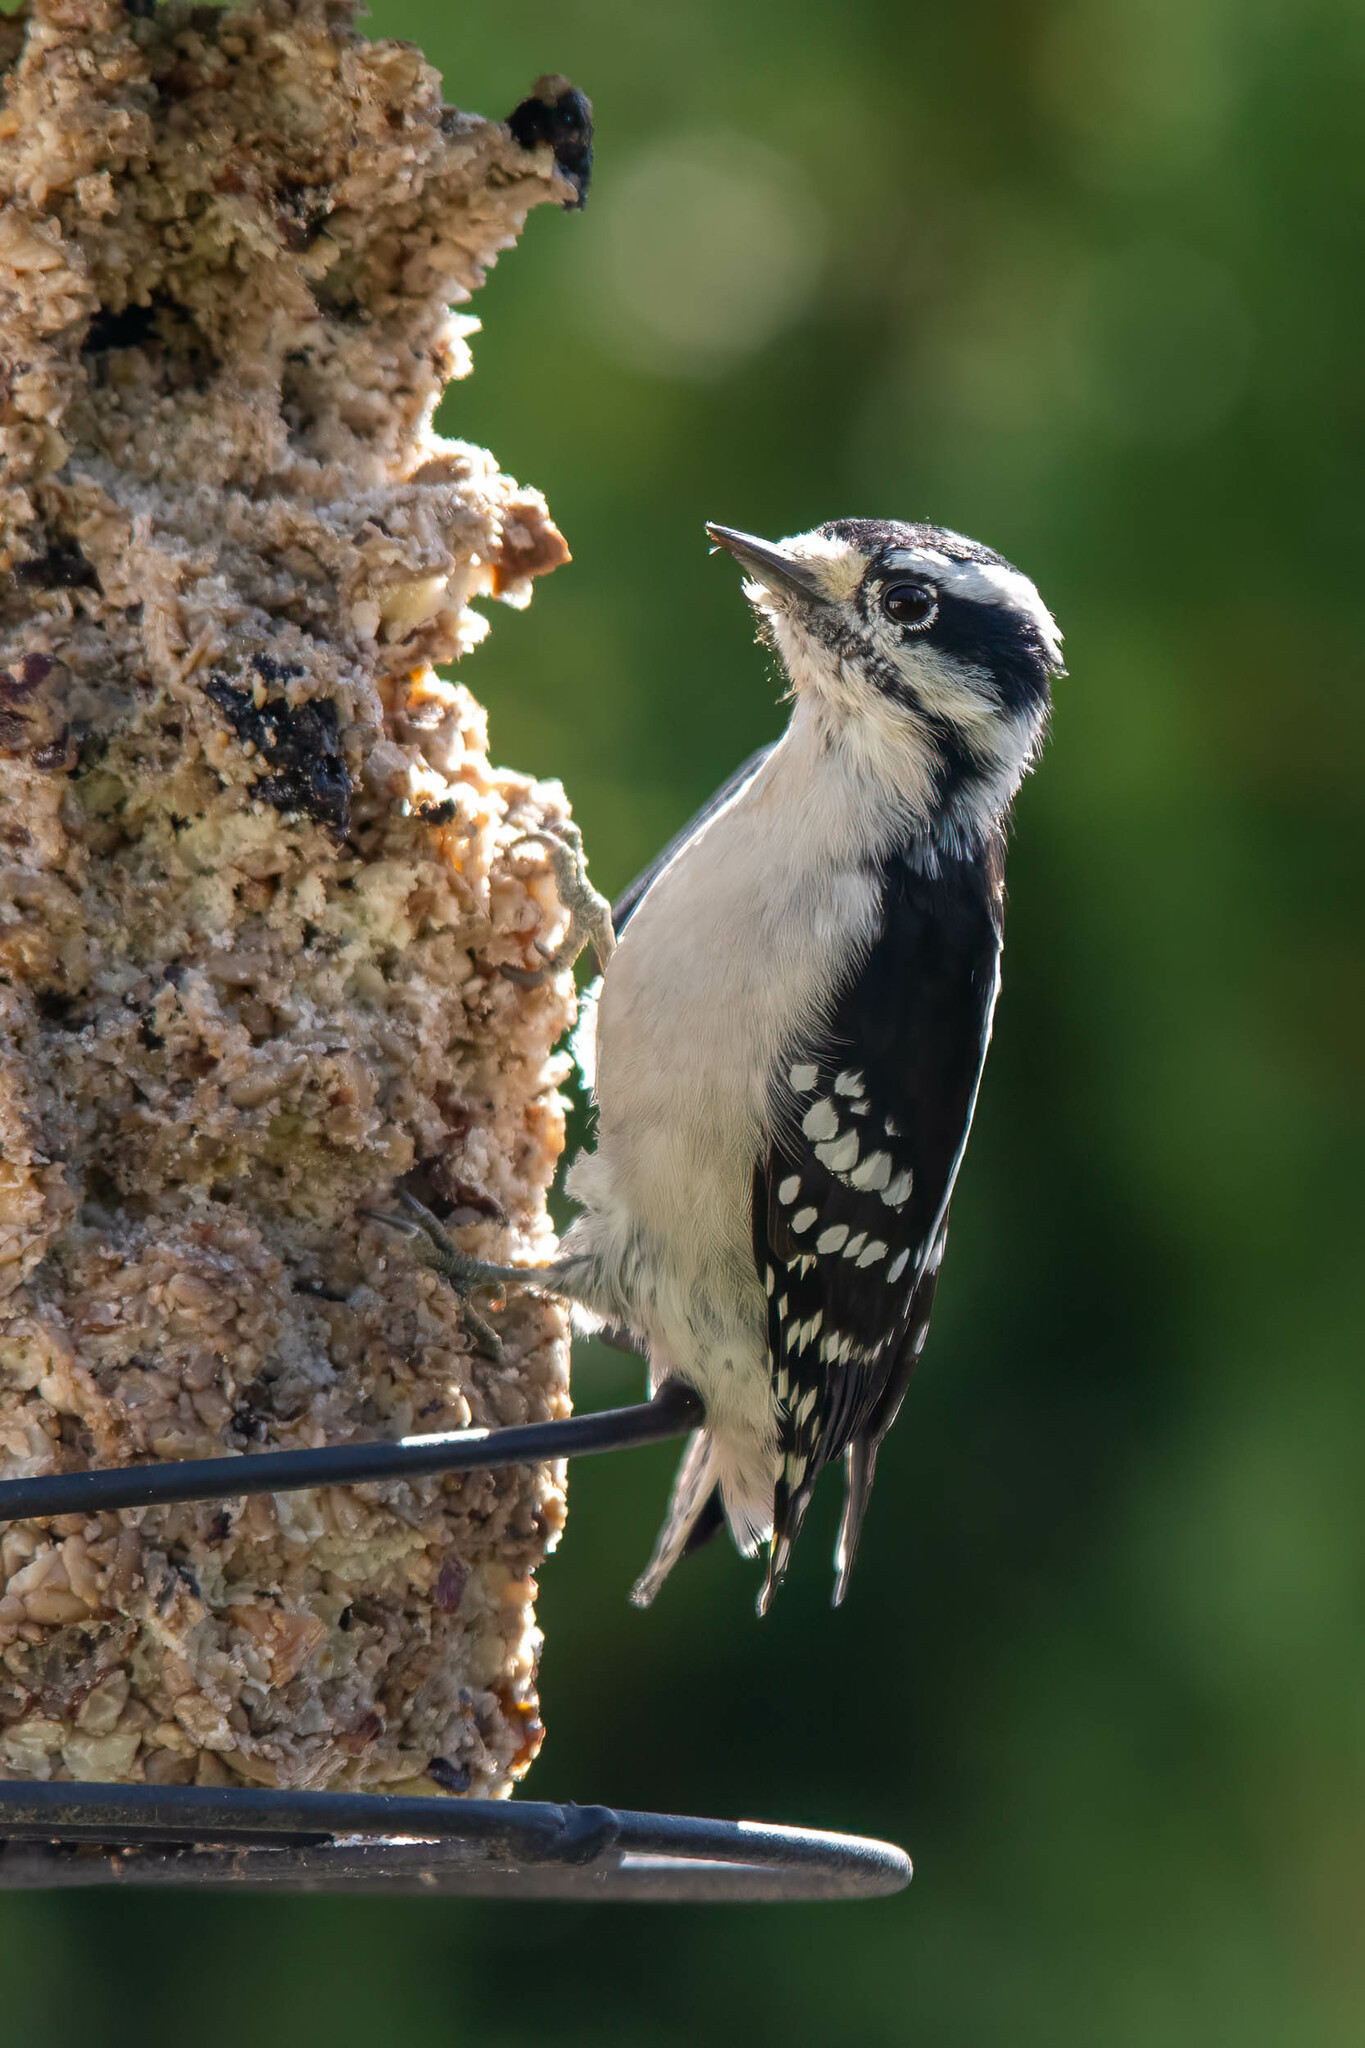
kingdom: Animalia
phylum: Chordata
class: Aves
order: Piciformes
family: Picidae
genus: Dryobates
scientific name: Dryobates pubescens
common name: Downy woodpecker
